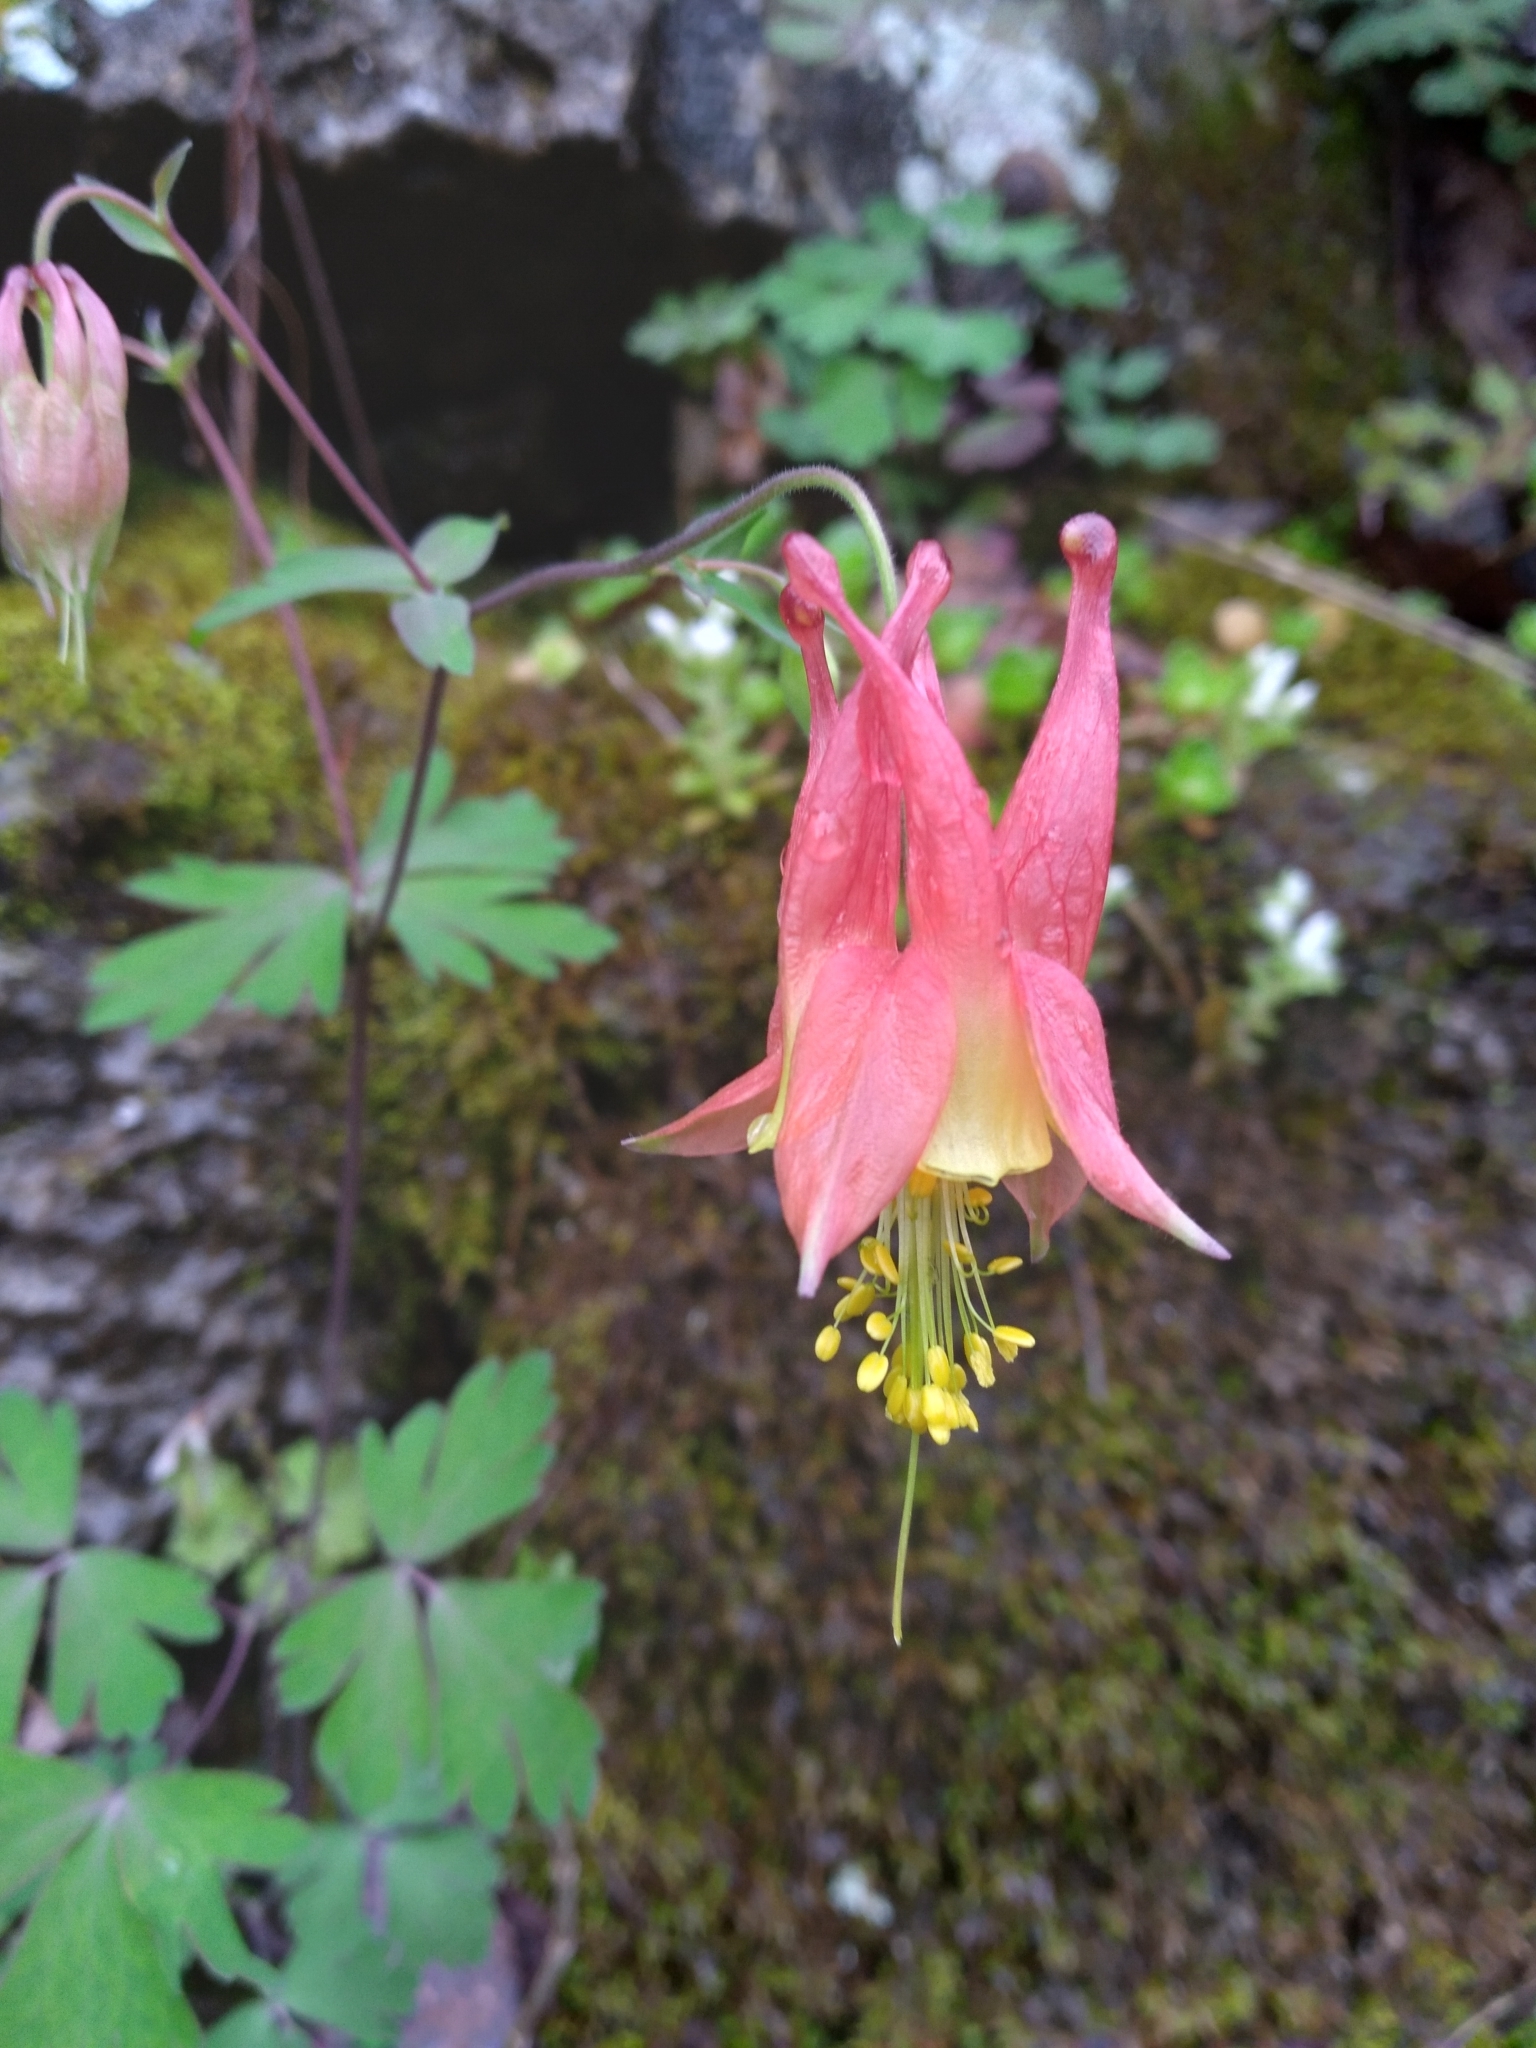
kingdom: Plantae
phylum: Tracheophyta
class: Magnoliopsida
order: Ranunculales
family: Ranunculaceae
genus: Aquilegia
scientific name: Aquilegia canadensis
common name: American columbine
